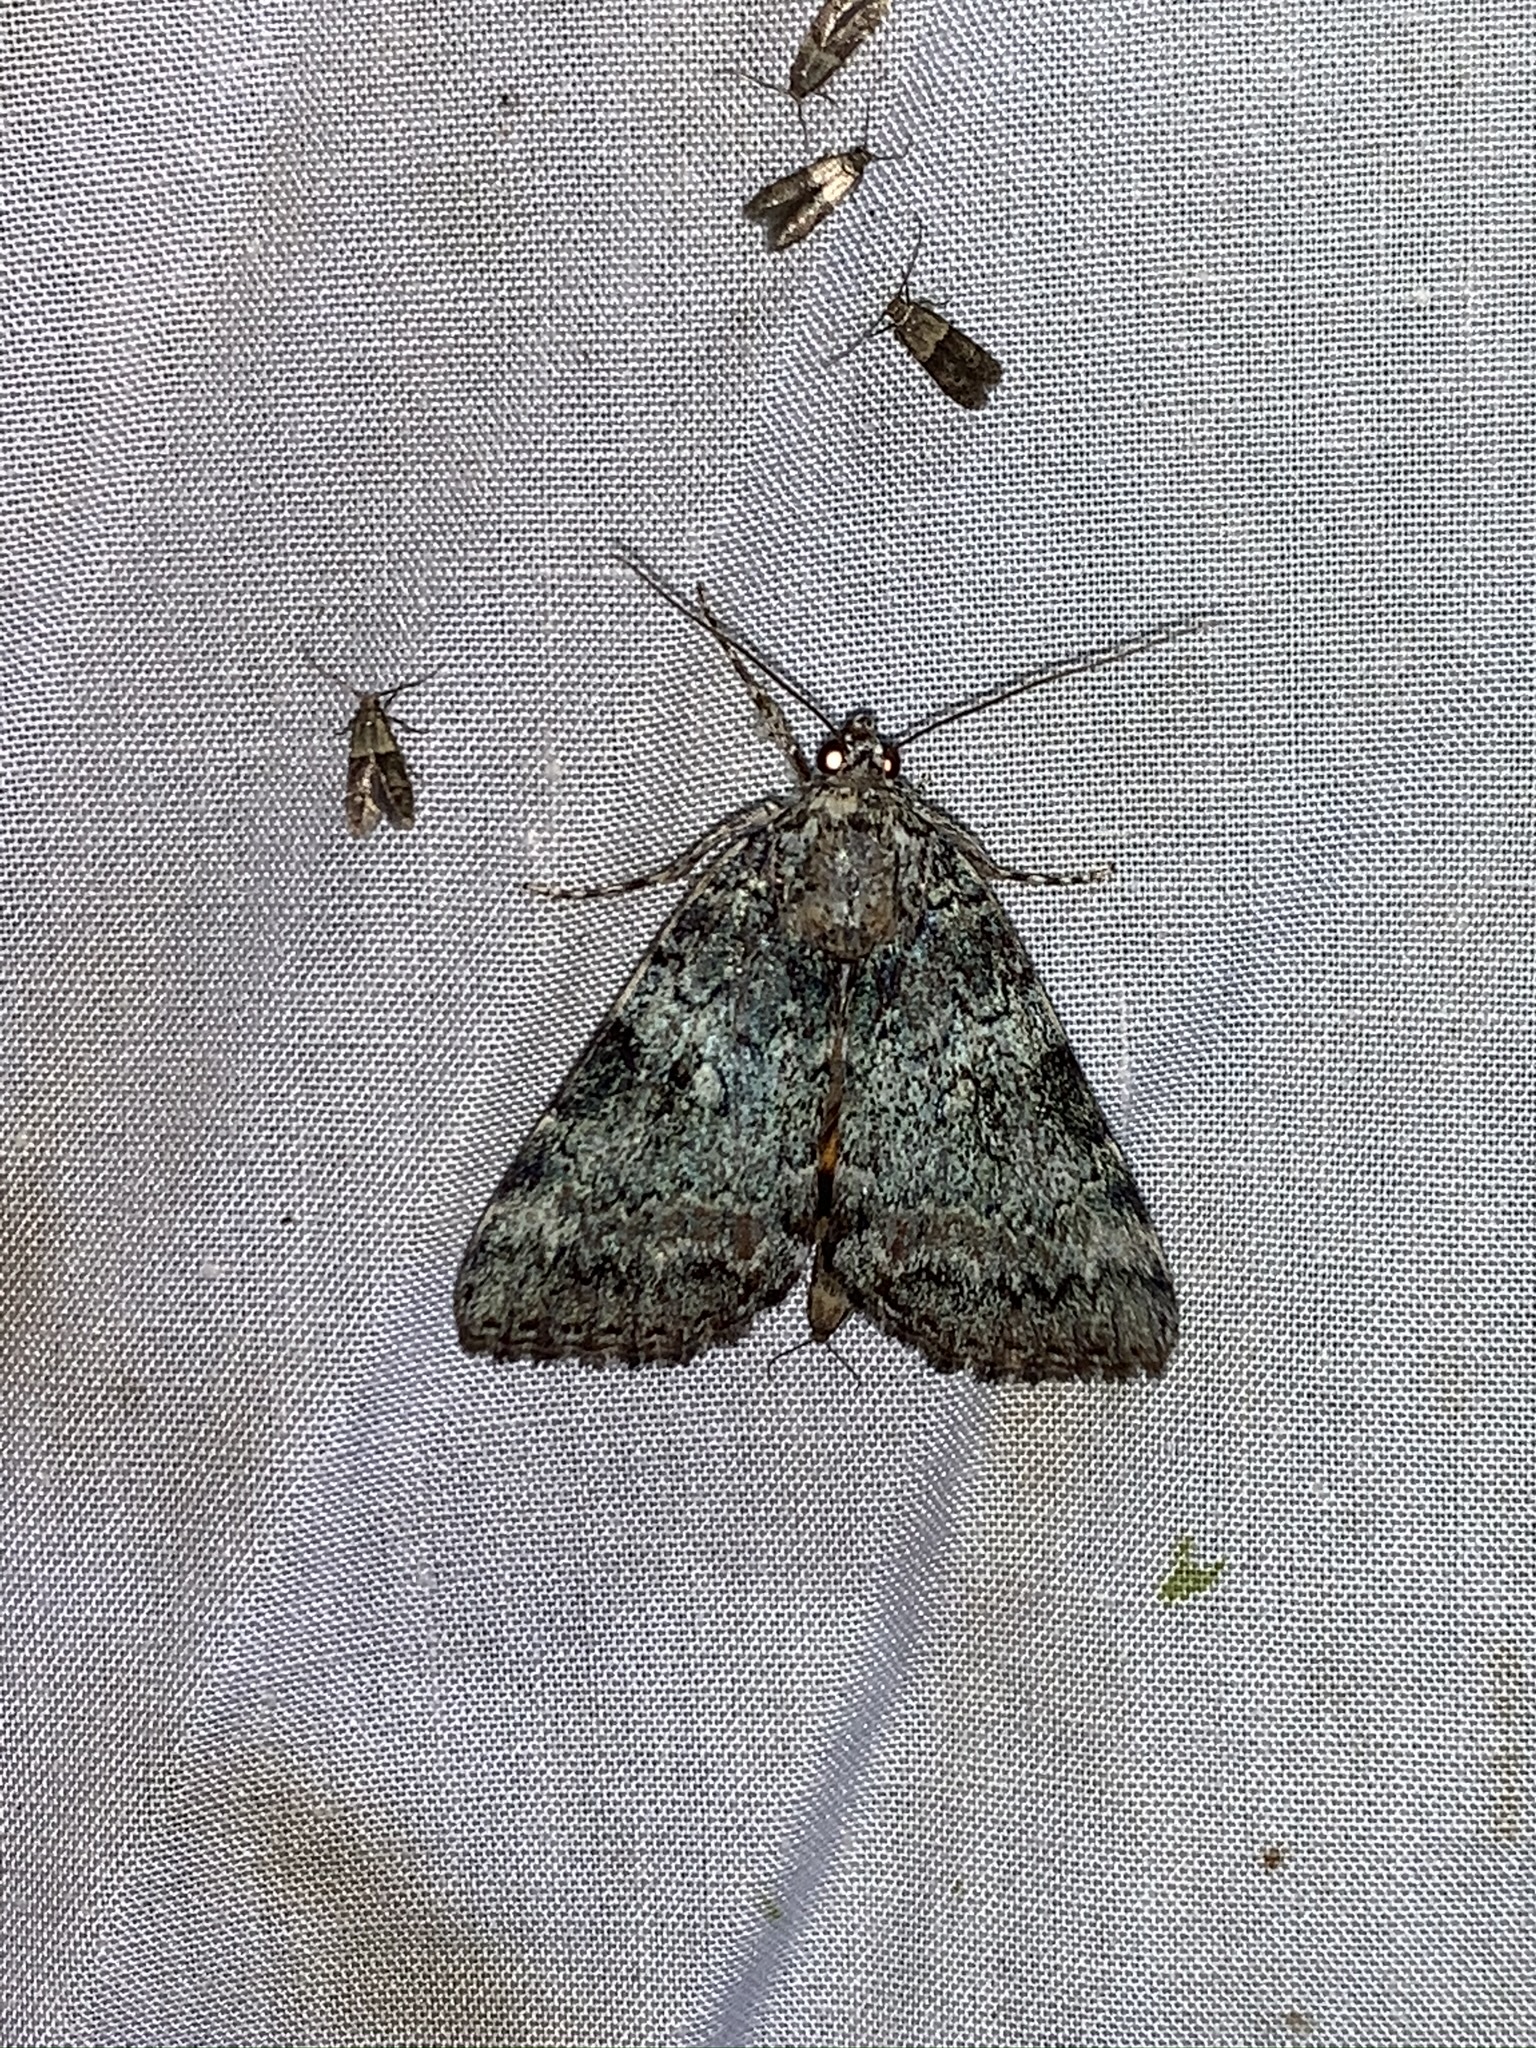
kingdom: Animalia
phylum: Arthropoda
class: Insecta
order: Lepidoptera
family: Erebidae
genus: Catocala
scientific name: Catocala connubialis
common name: Connubial underwing
